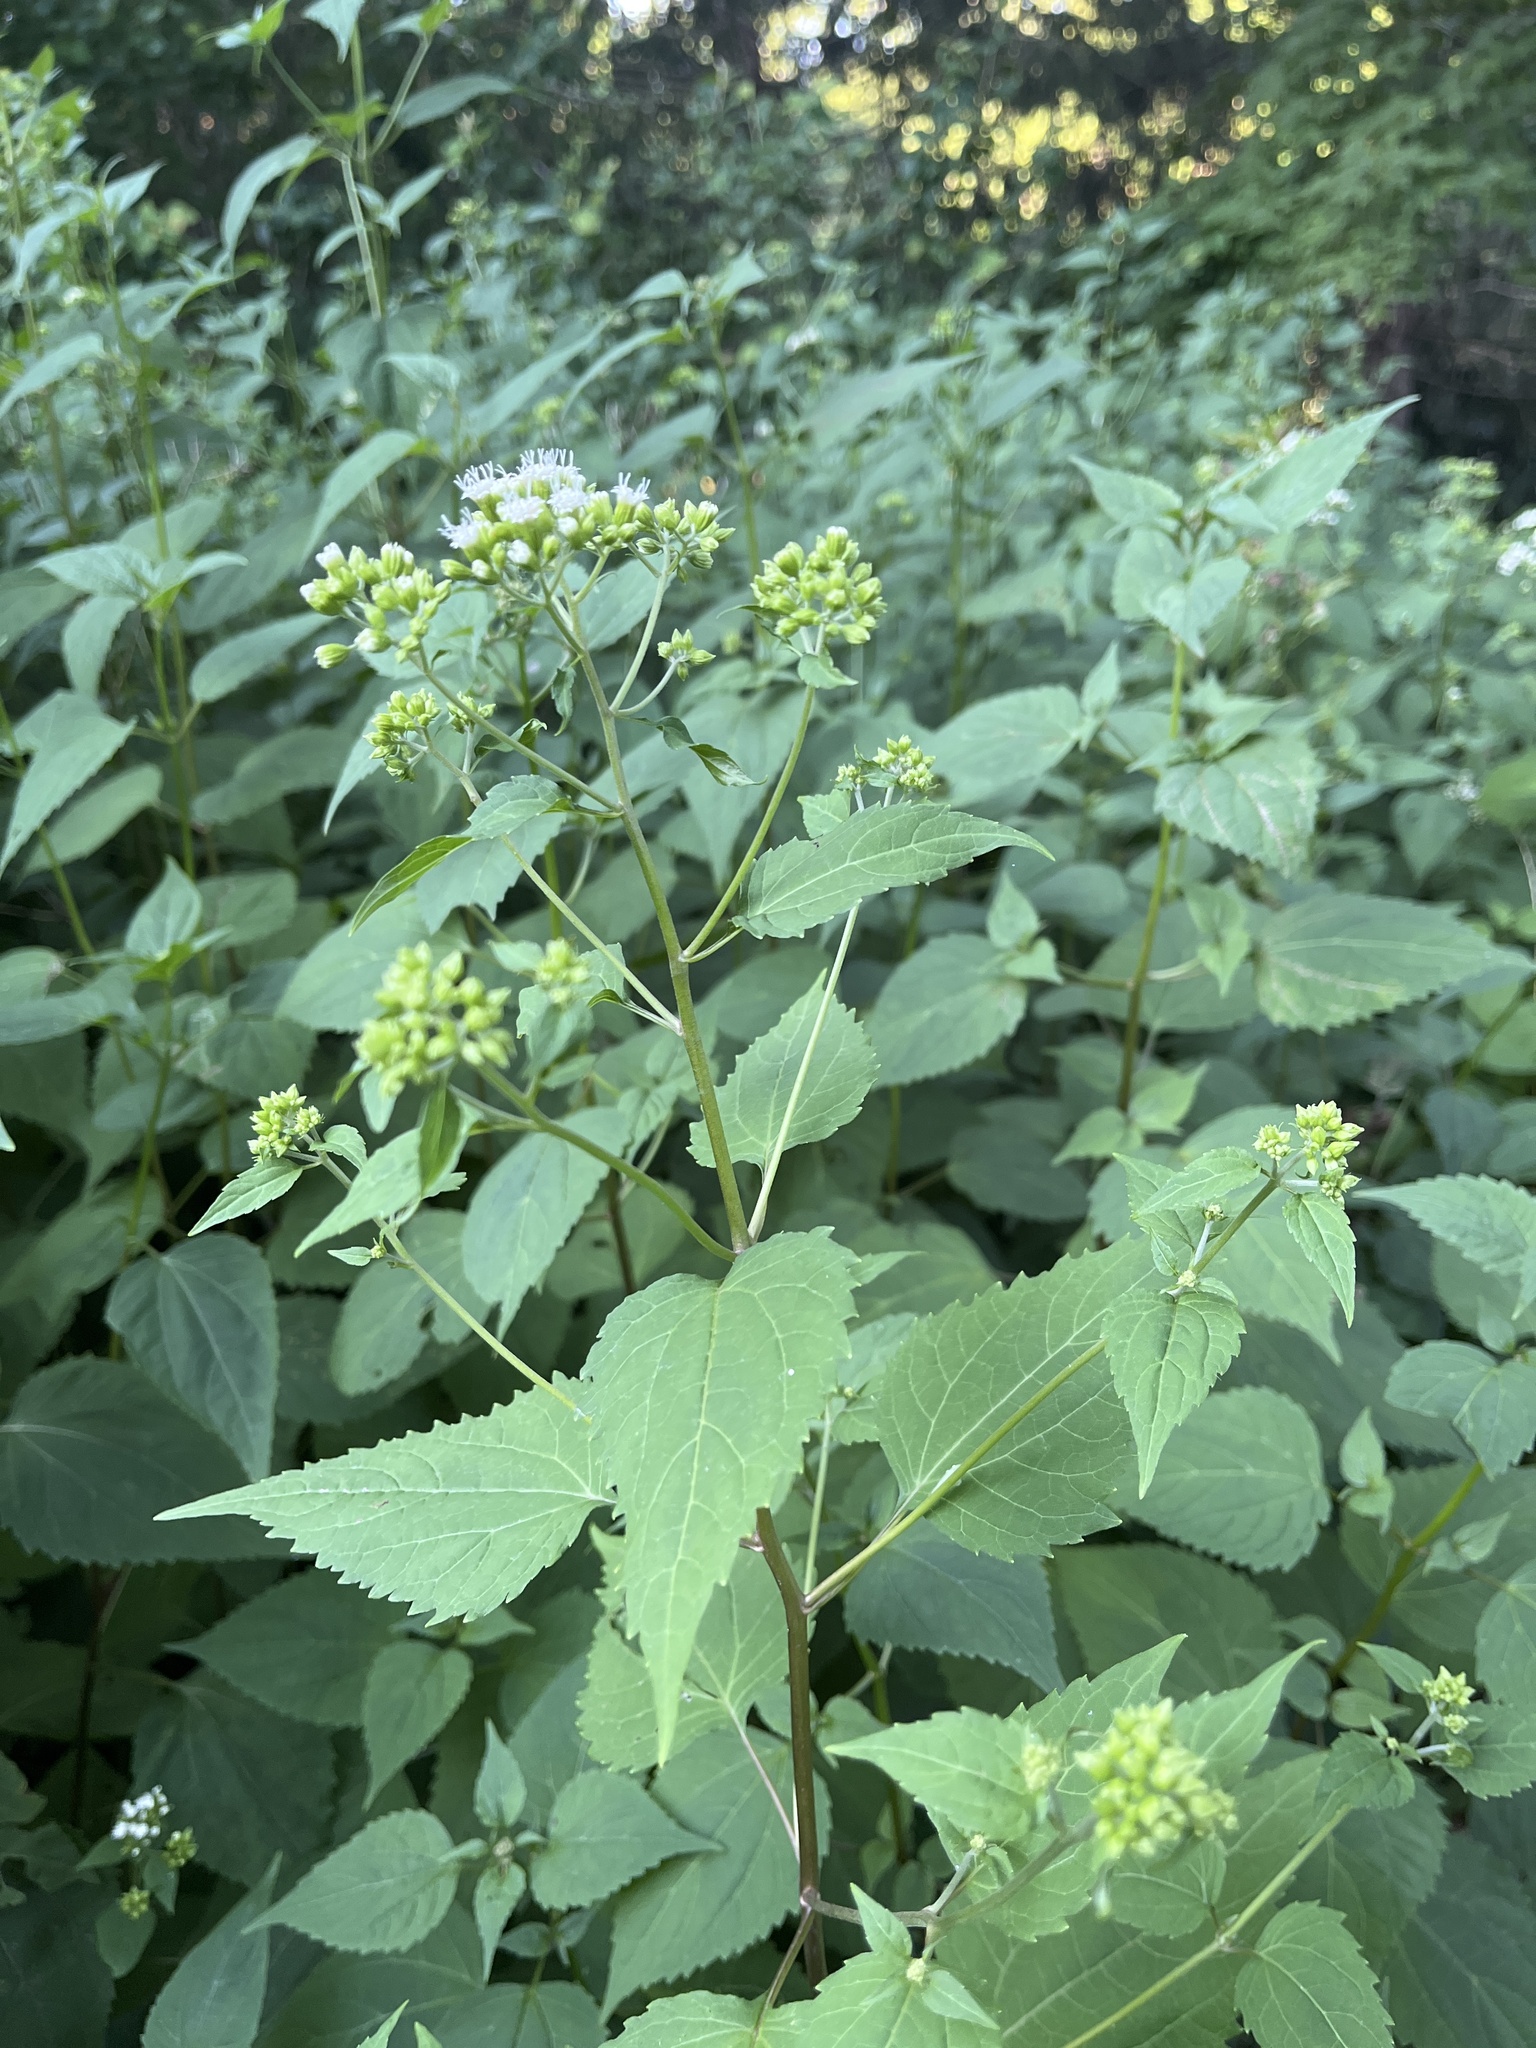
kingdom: Plantae
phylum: Tracheophyta
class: Magnoliopsida
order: Asterales
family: Asteraceae
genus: Ageratina
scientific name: Ageratina altissima
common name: White snakeroot
